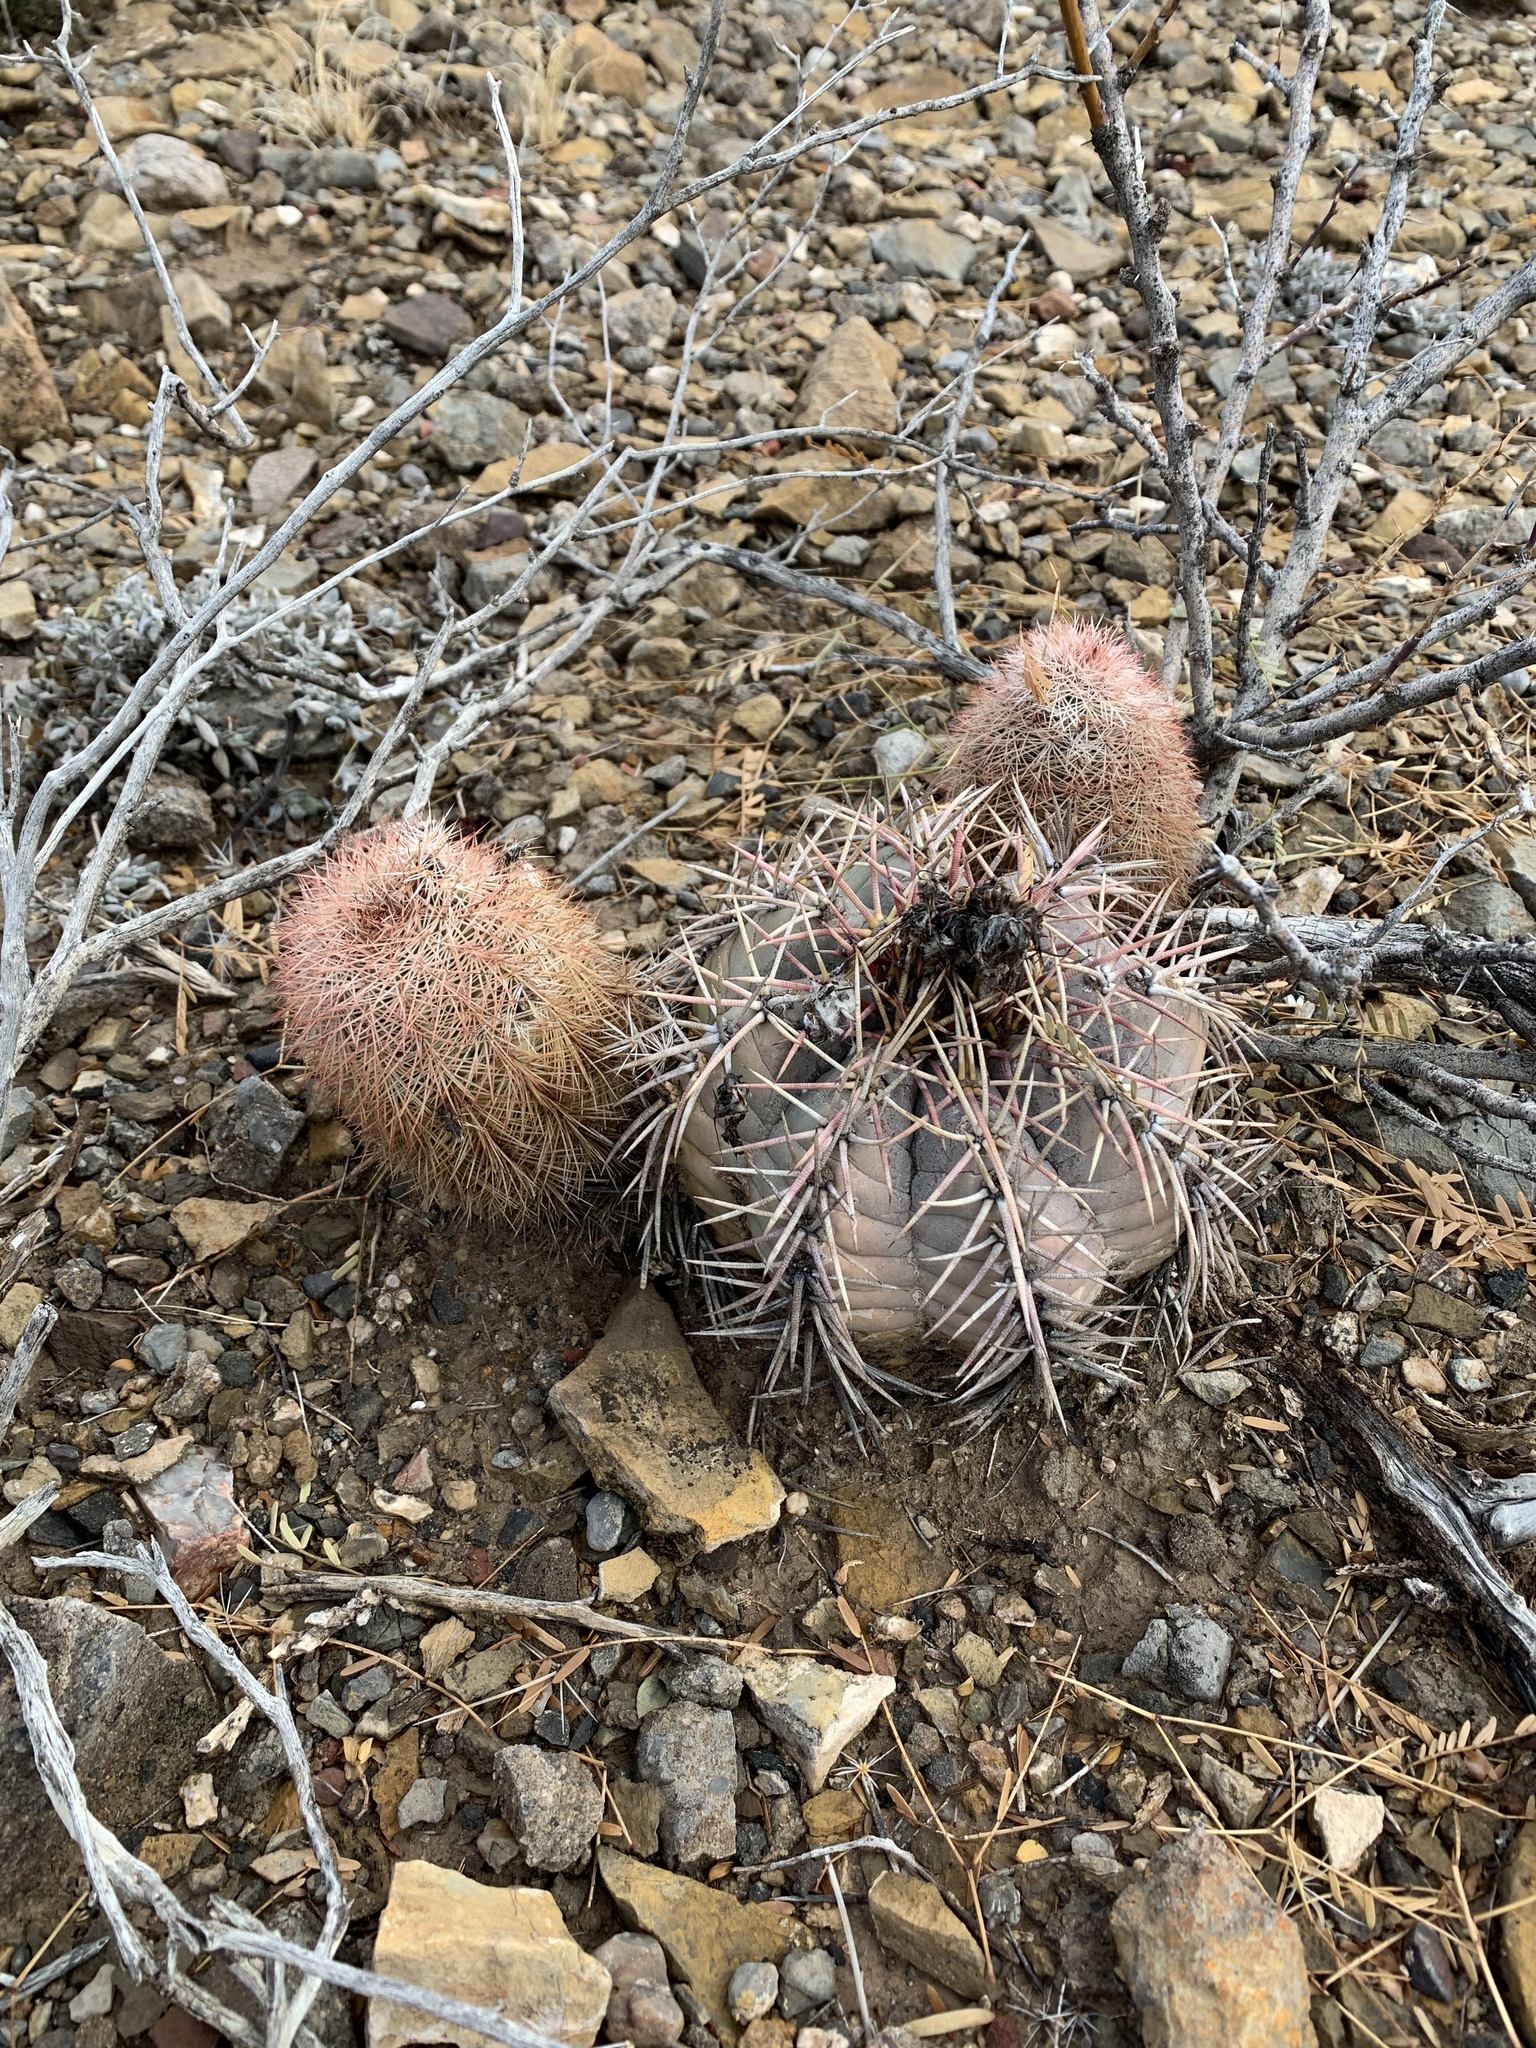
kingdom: Plantae
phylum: Tracheophyta
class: Magnoliopsida
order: Caryophyllales
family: Cactaceae
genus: Echinocactus
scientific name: Echinocactus horizonthalonius
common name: Devilshead
